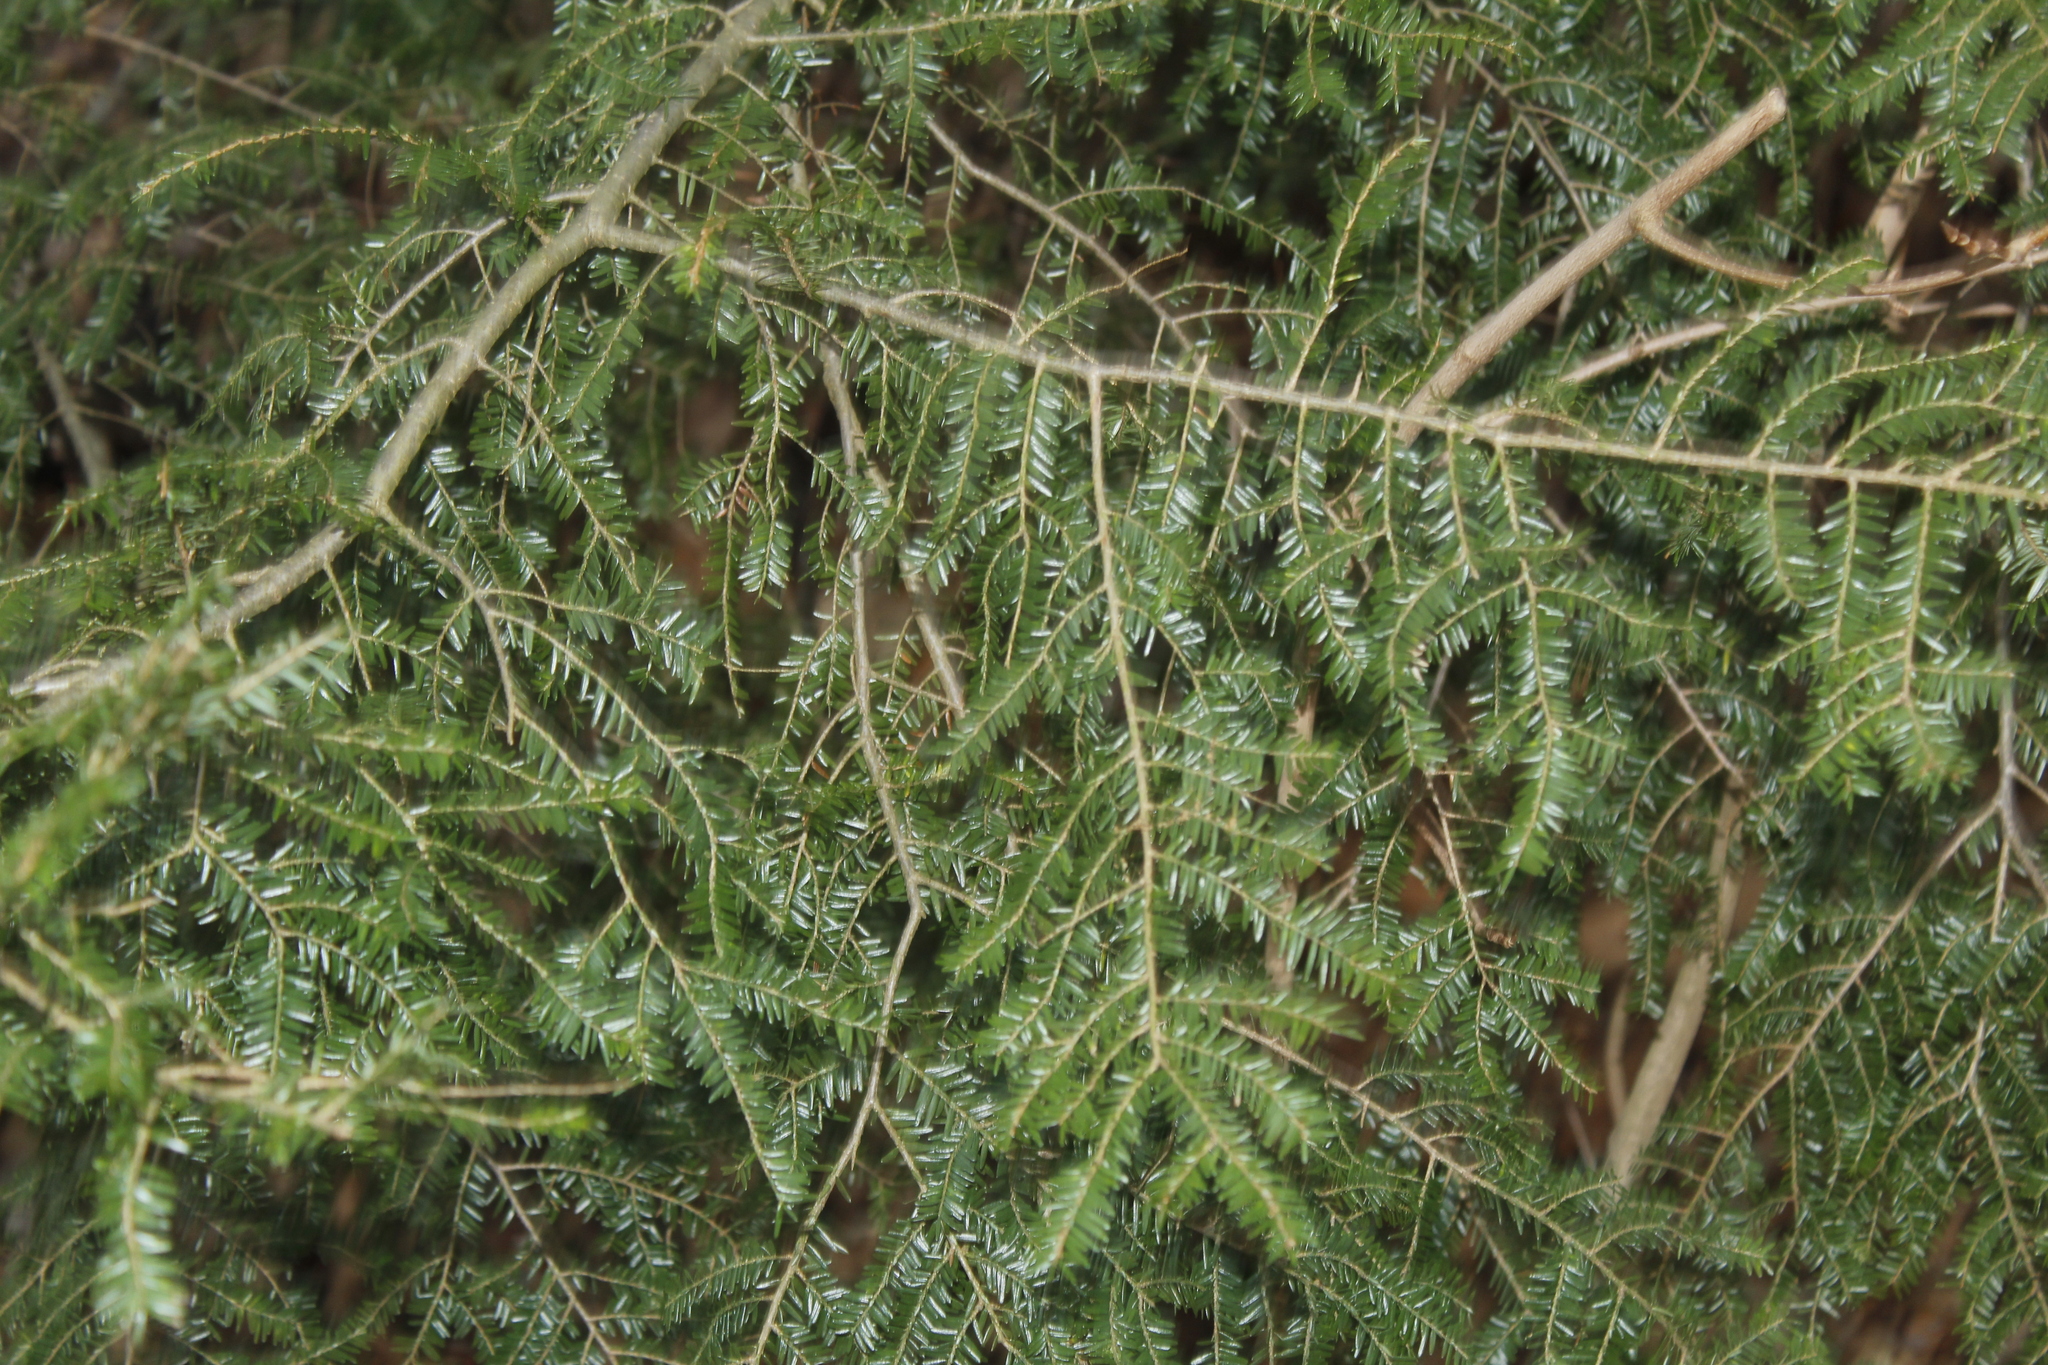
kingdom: Plantae
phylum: Tracheophyta
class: Pinopsida
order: Pinales
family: Pinaceae
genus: Tsuga
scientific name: Tsuga canadensis
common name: Eastern hemlock
